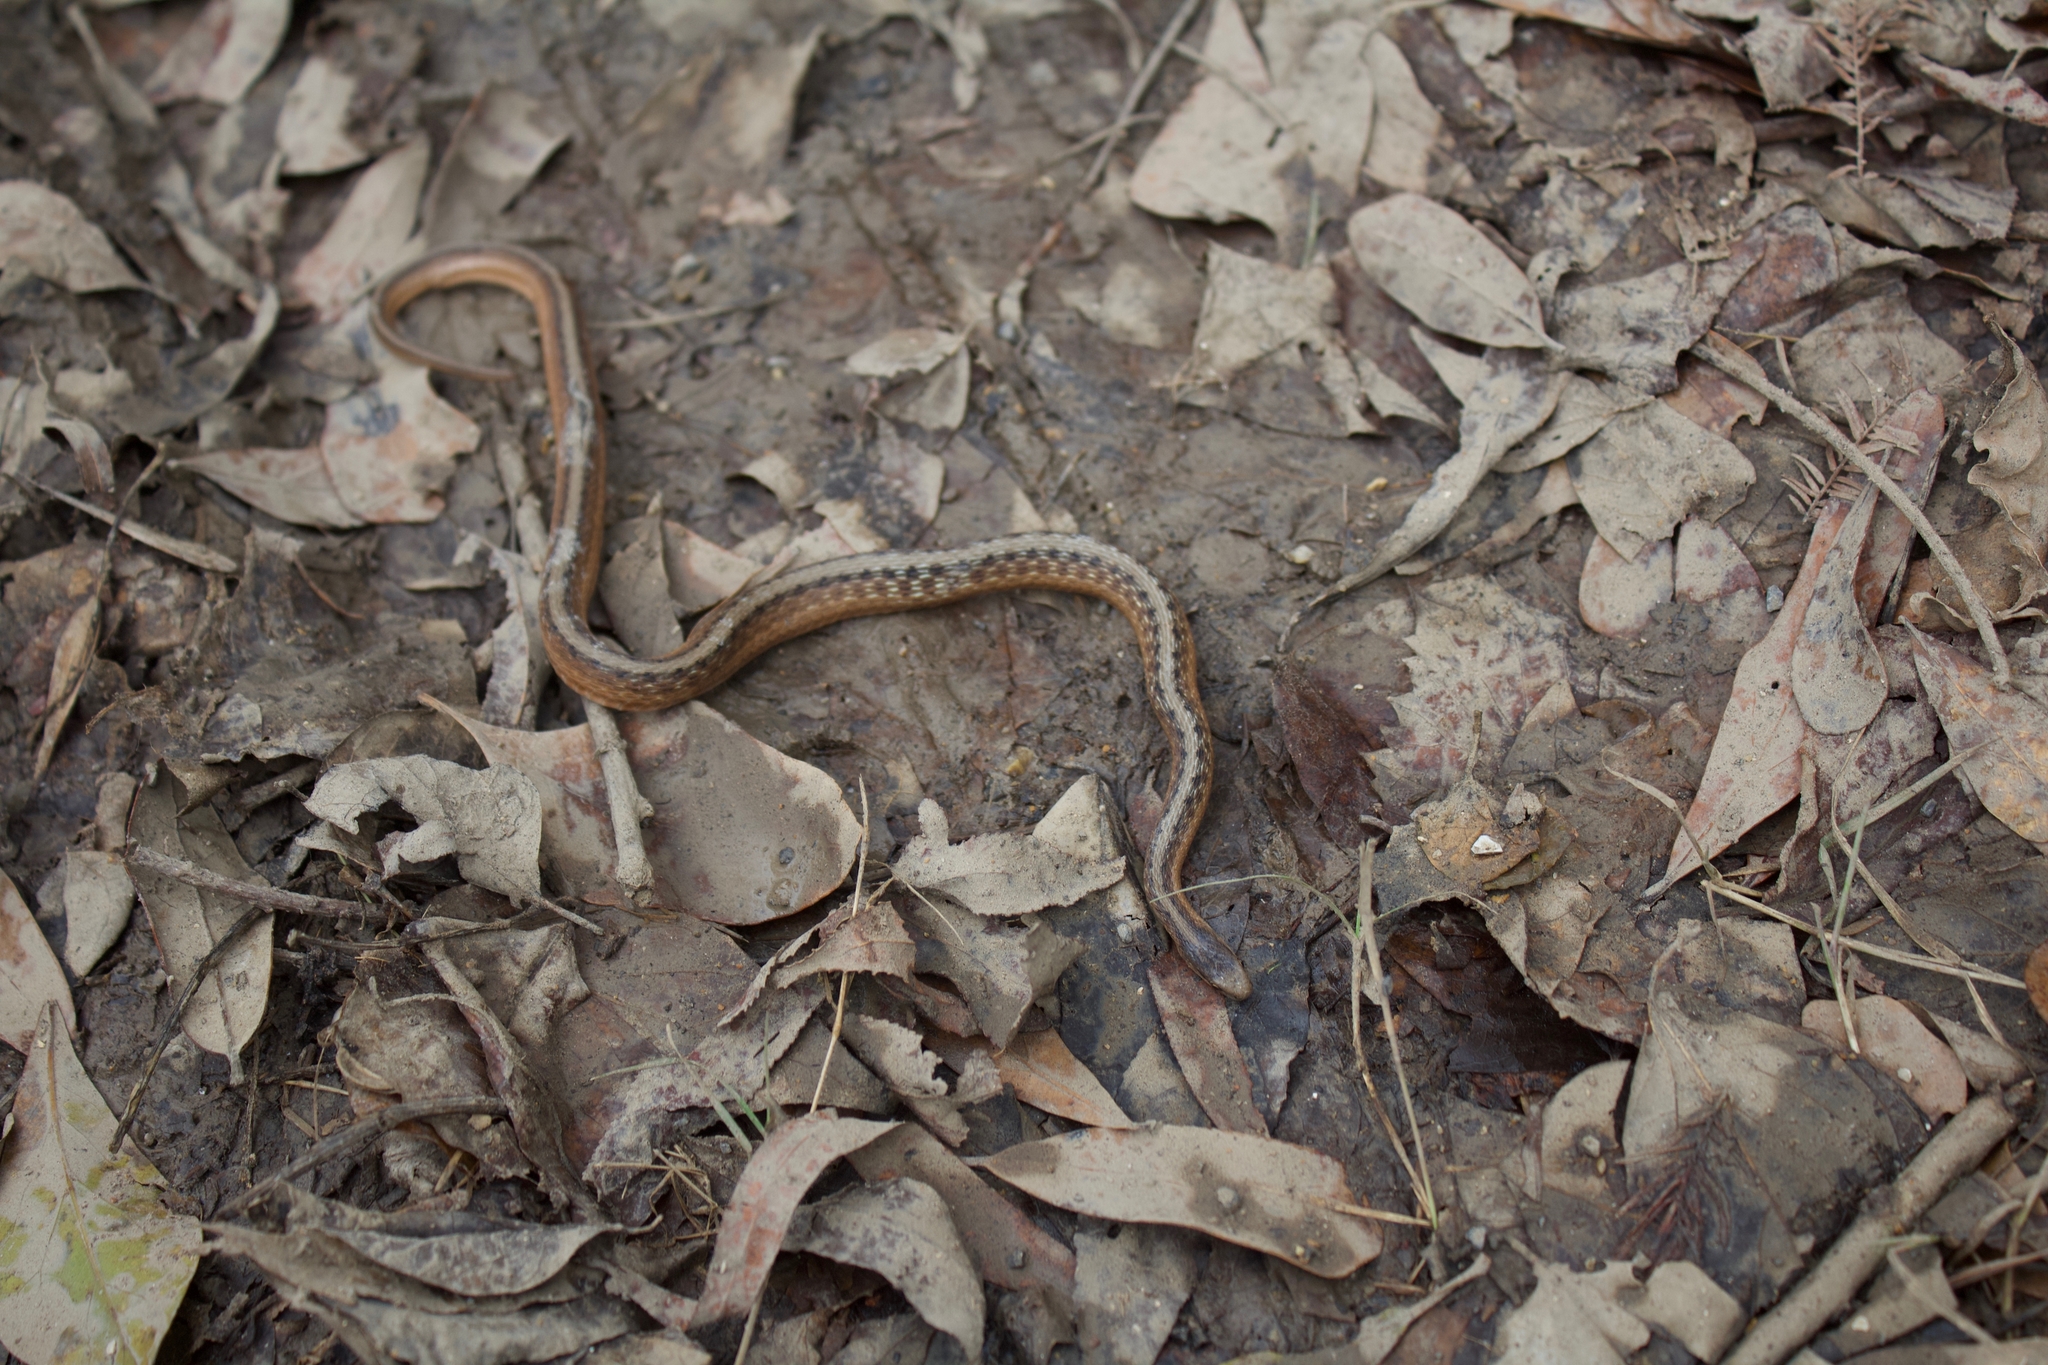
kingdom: Animalia
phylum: Chordata
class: Squamata
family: Colubridae
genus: Storeria
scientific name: Storeria dekayi
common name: (dekay’s) brown snake
